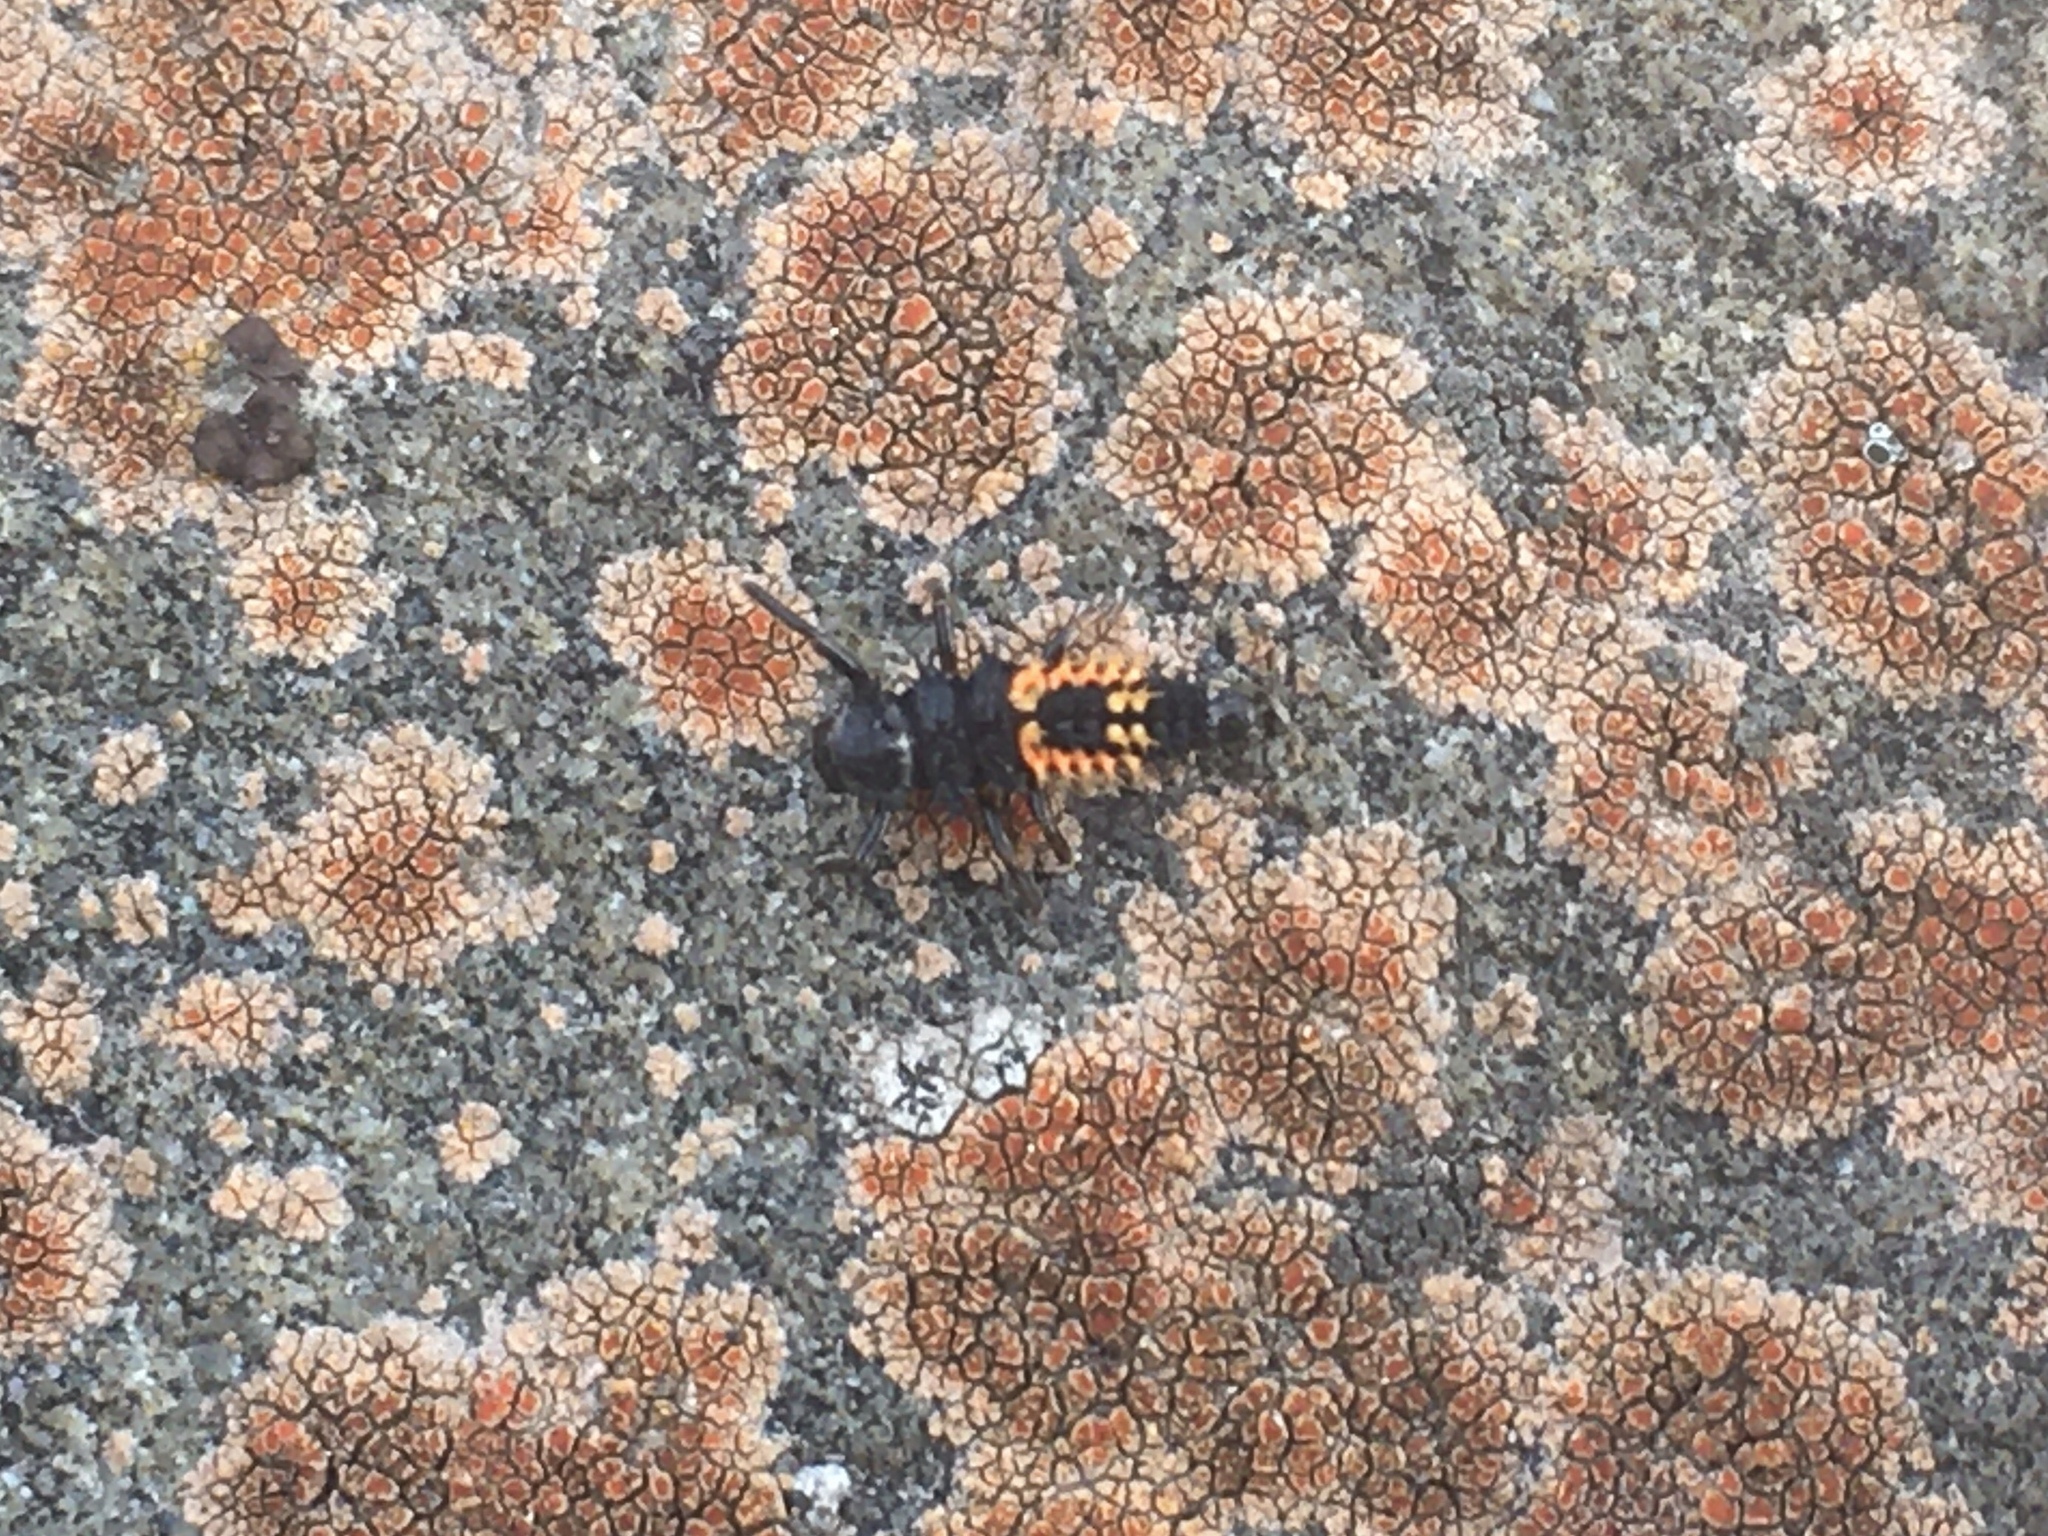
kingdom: Animalia
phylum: Arthropoda
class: Insecta
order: Coleoptera
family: Coccinellidae
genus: Harmonia
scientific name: Harmonia axyridis
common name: Harlequin ladybird
